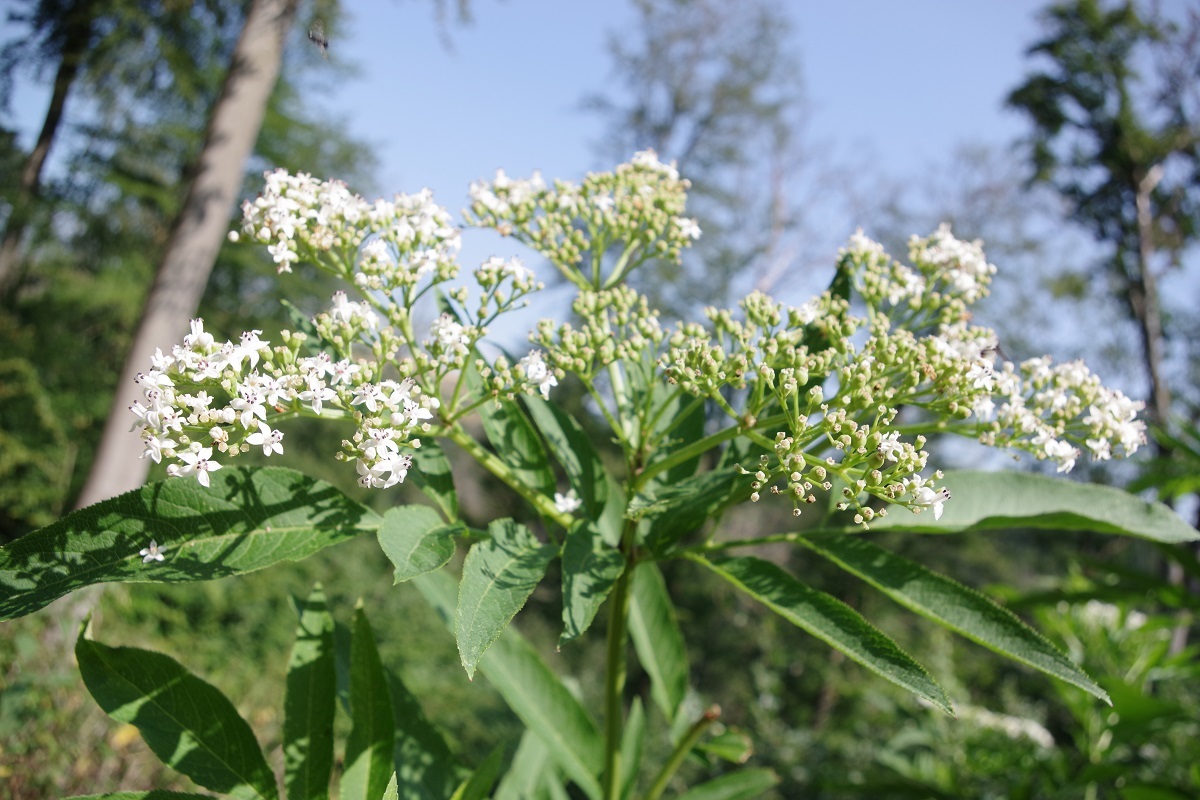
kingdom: Plantae
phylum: Tracheophyta
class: Magnoliopsida
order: Dipsacales
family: Viburnaceae
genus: Sambucus
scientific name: Sambucus ebulus
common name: Dwarf elder
